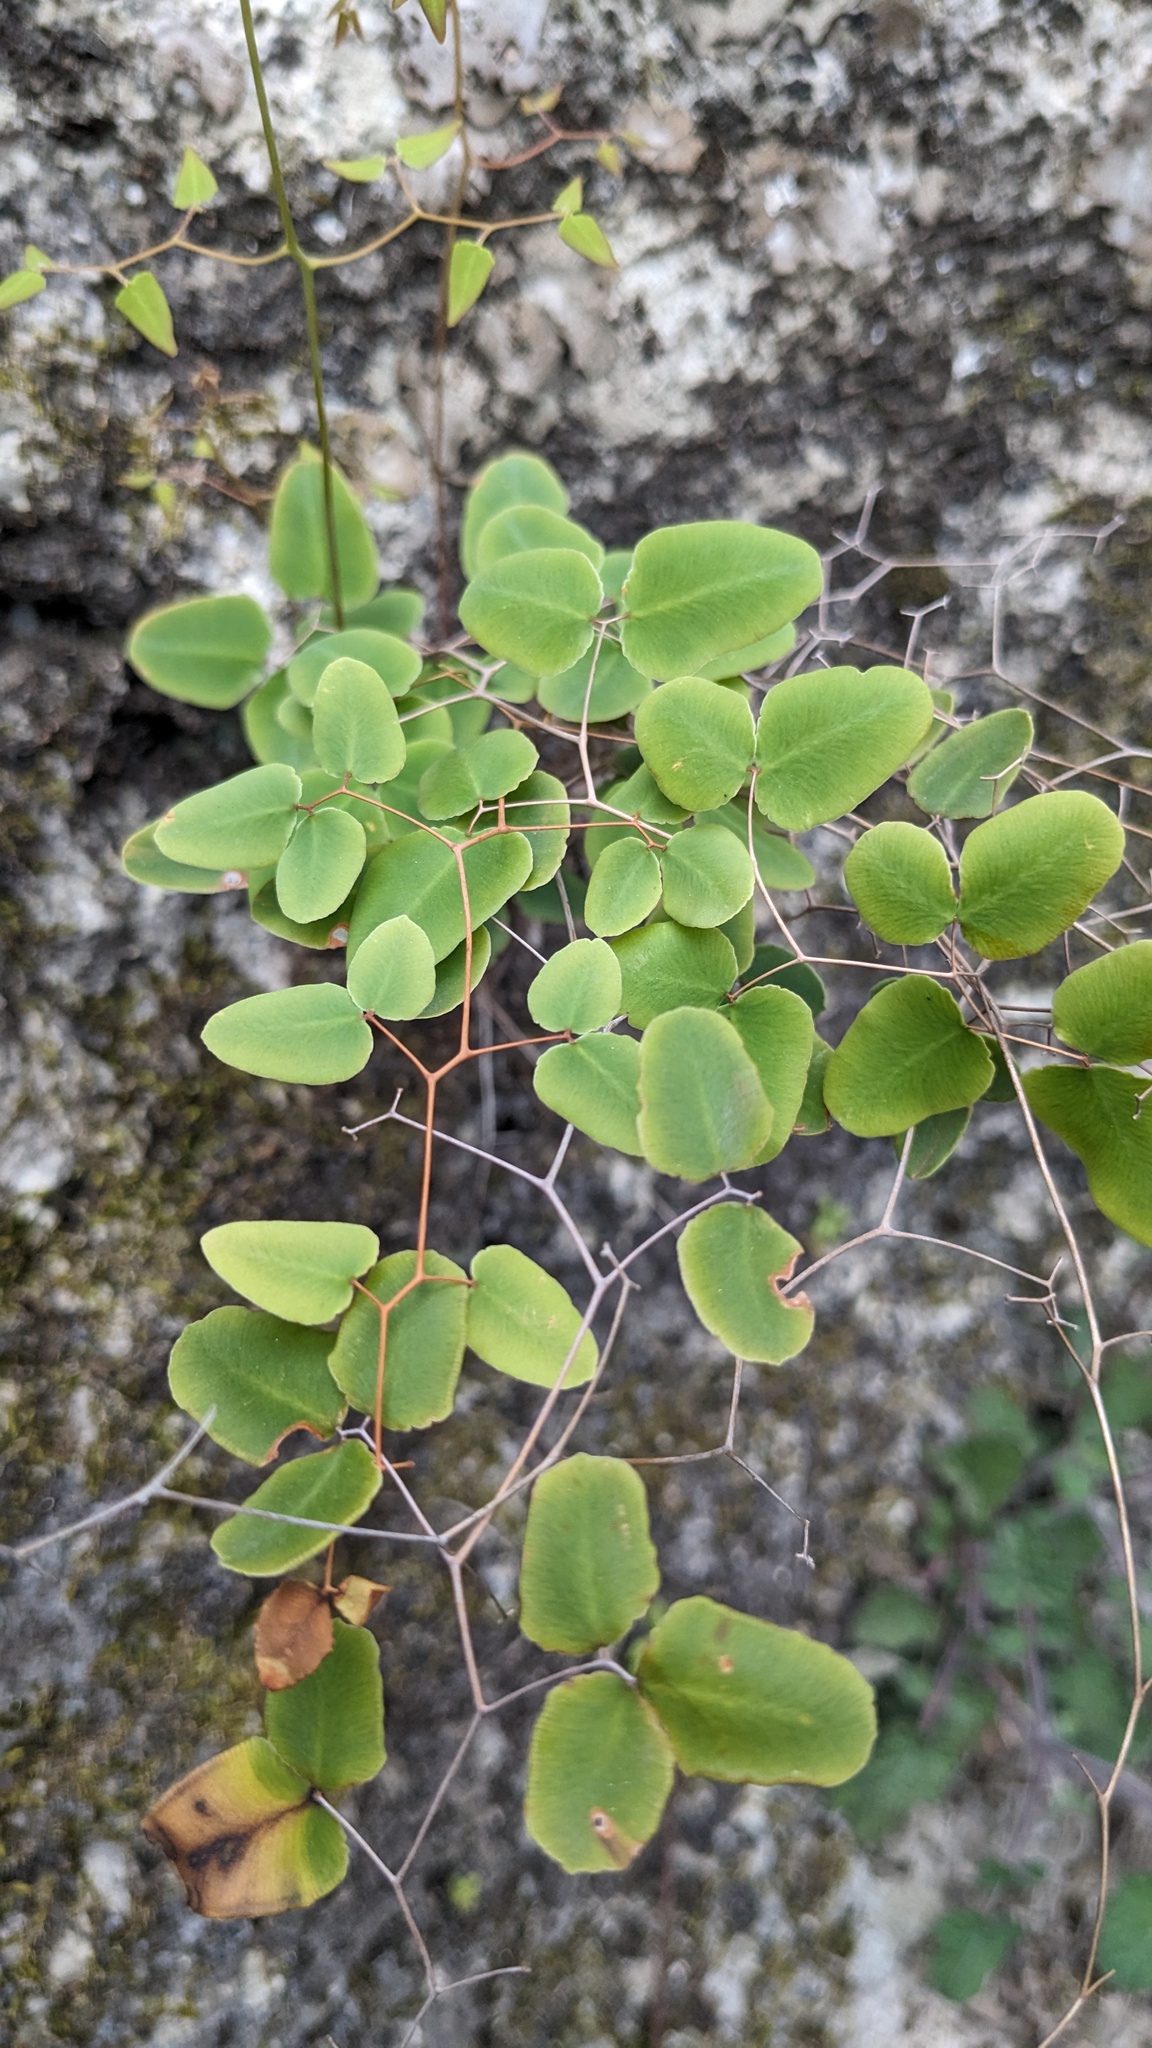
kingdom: Plantae
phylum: Tracheophyta
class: Polypodiopsida
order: Polypodiales
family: Pteridaceae
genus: Pellaea
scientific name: Pellaea ovata
